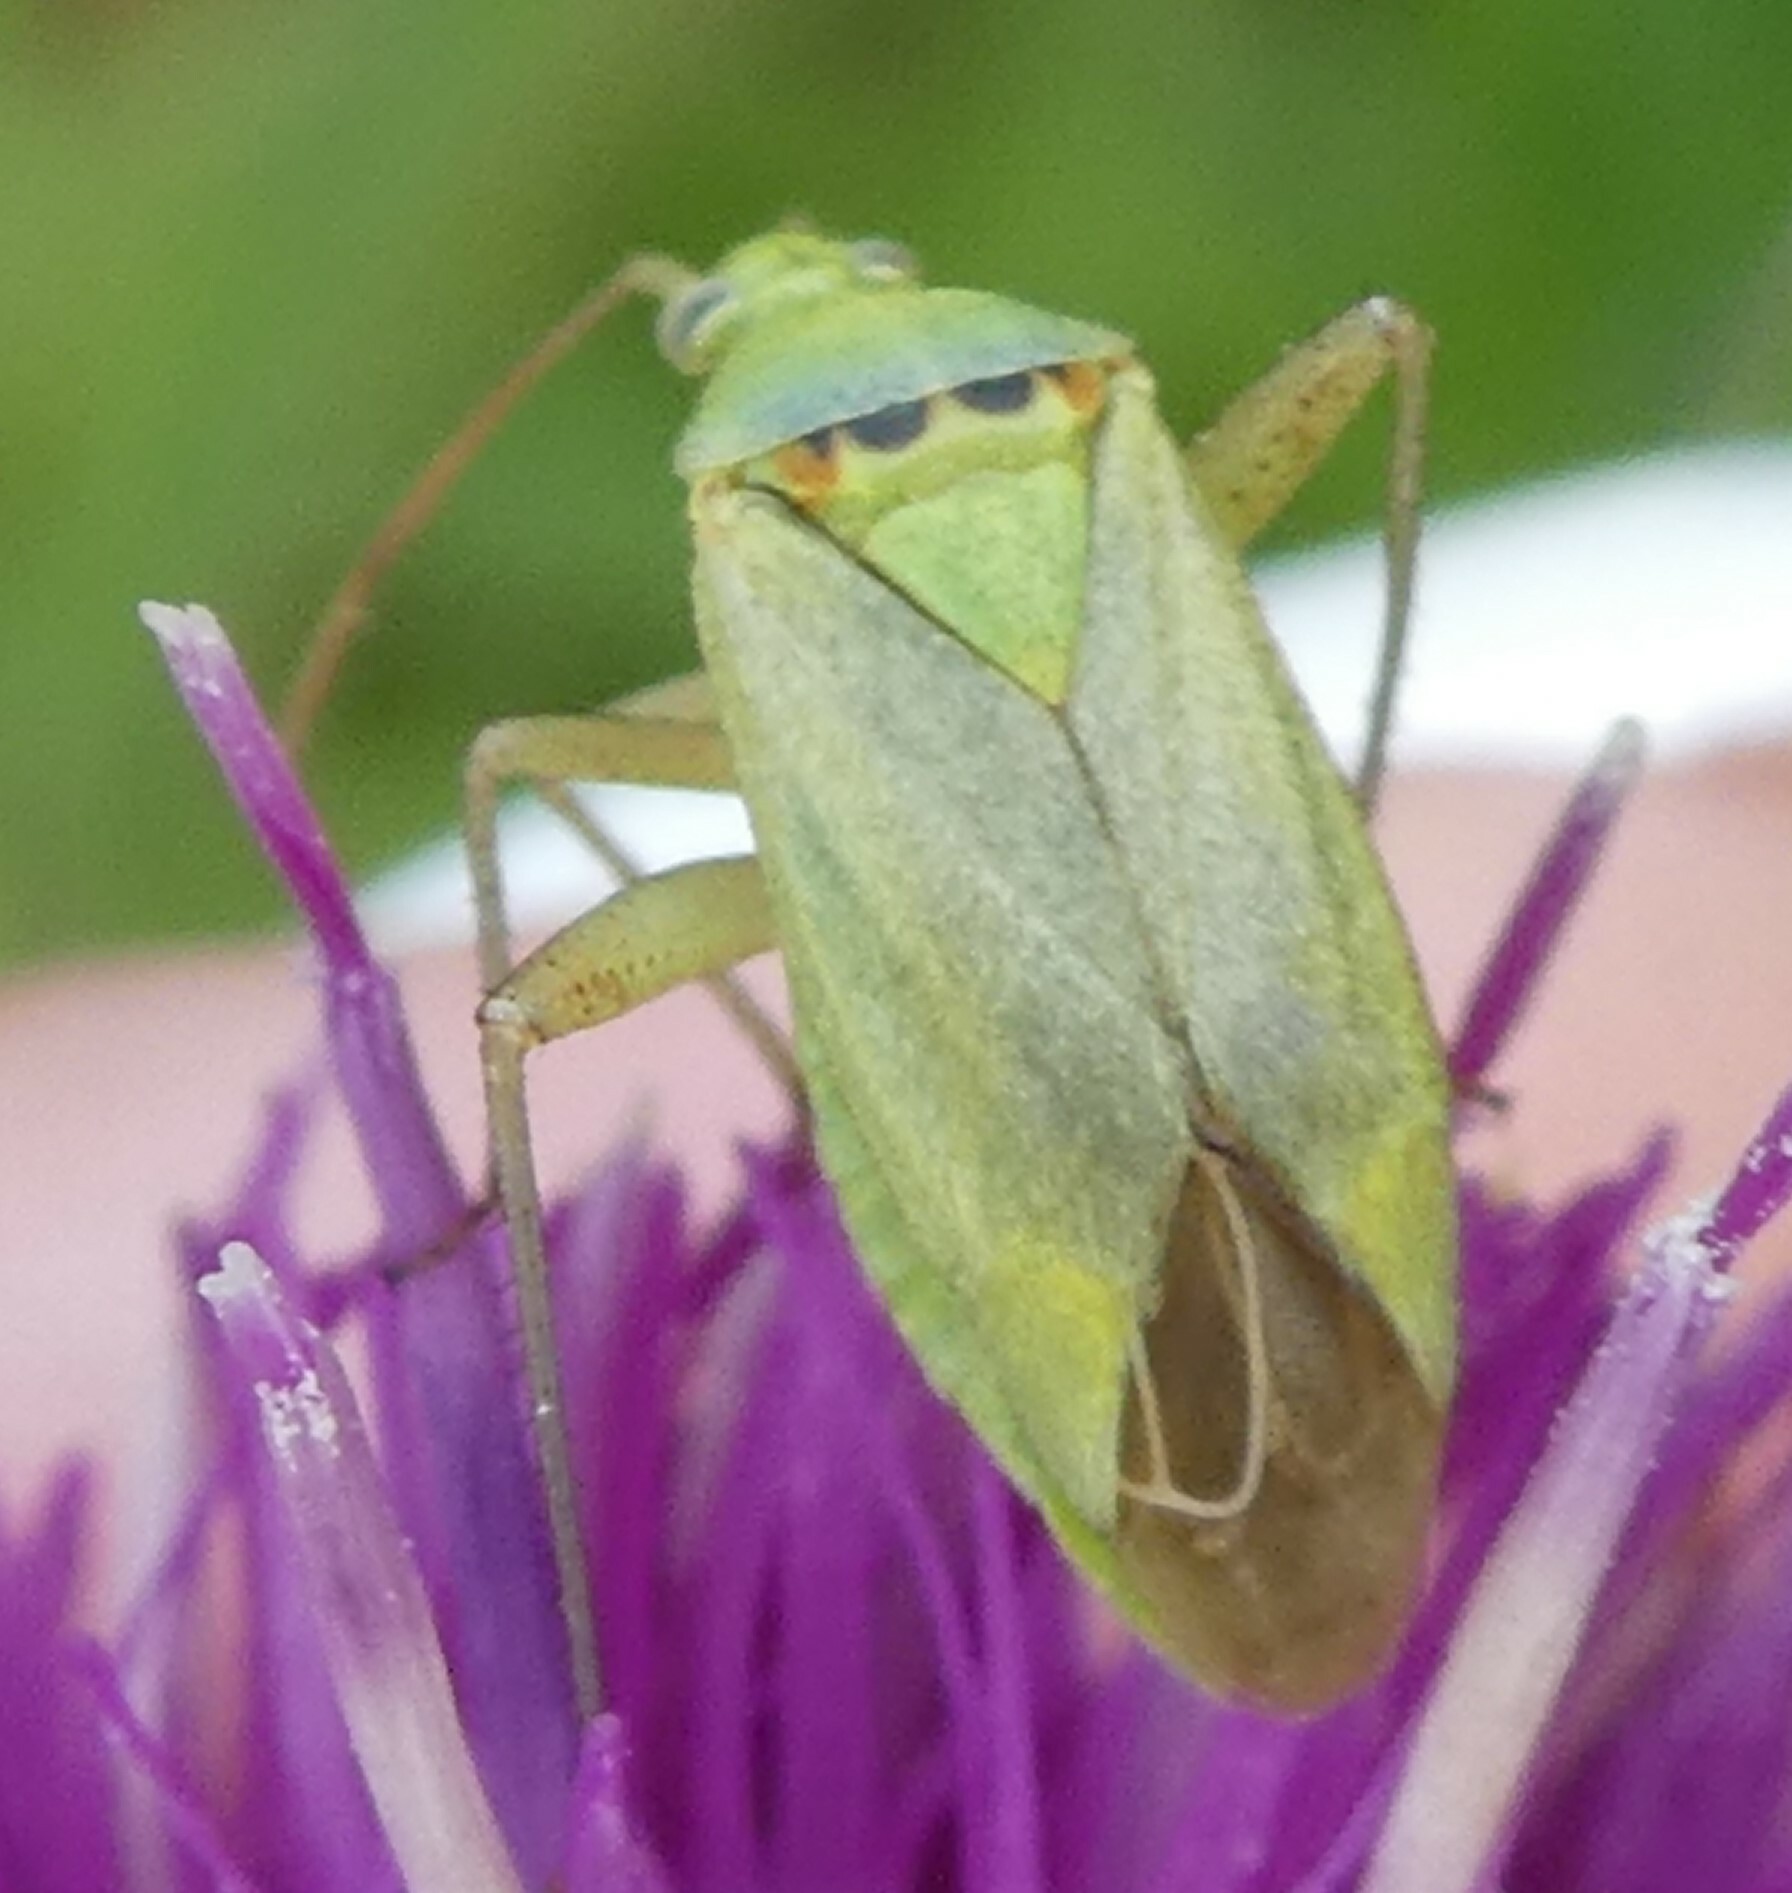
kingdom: Animalia
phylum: Arthropoda
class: Insecta
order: Hemiptera
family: Miridae
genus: Closterotomus
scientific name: Closterotomus norvegicus
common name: Plant bug
